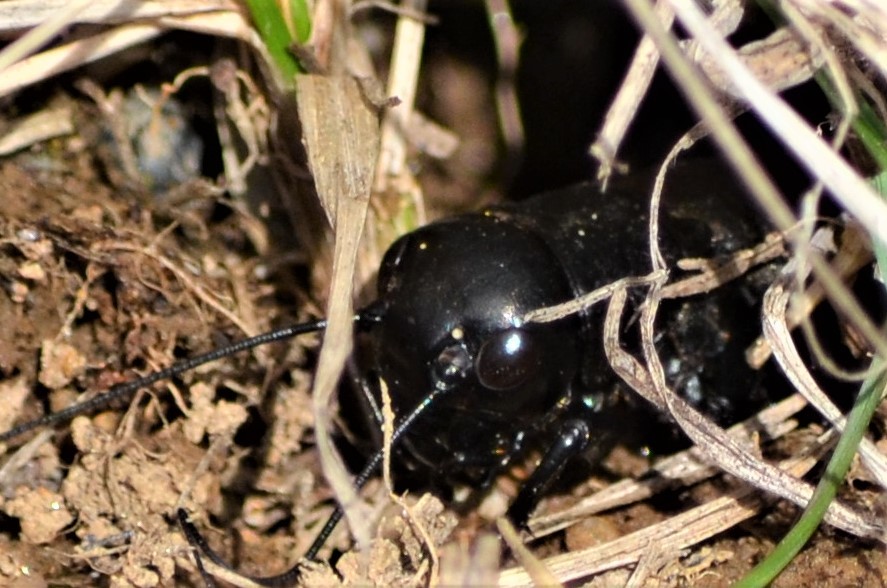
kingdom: Animalia
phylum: Arthropoda
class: Insecta
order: Orthoptera
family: Gryllidae
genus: Gryllus
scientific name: Gryllus campestris
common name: Field cricket
